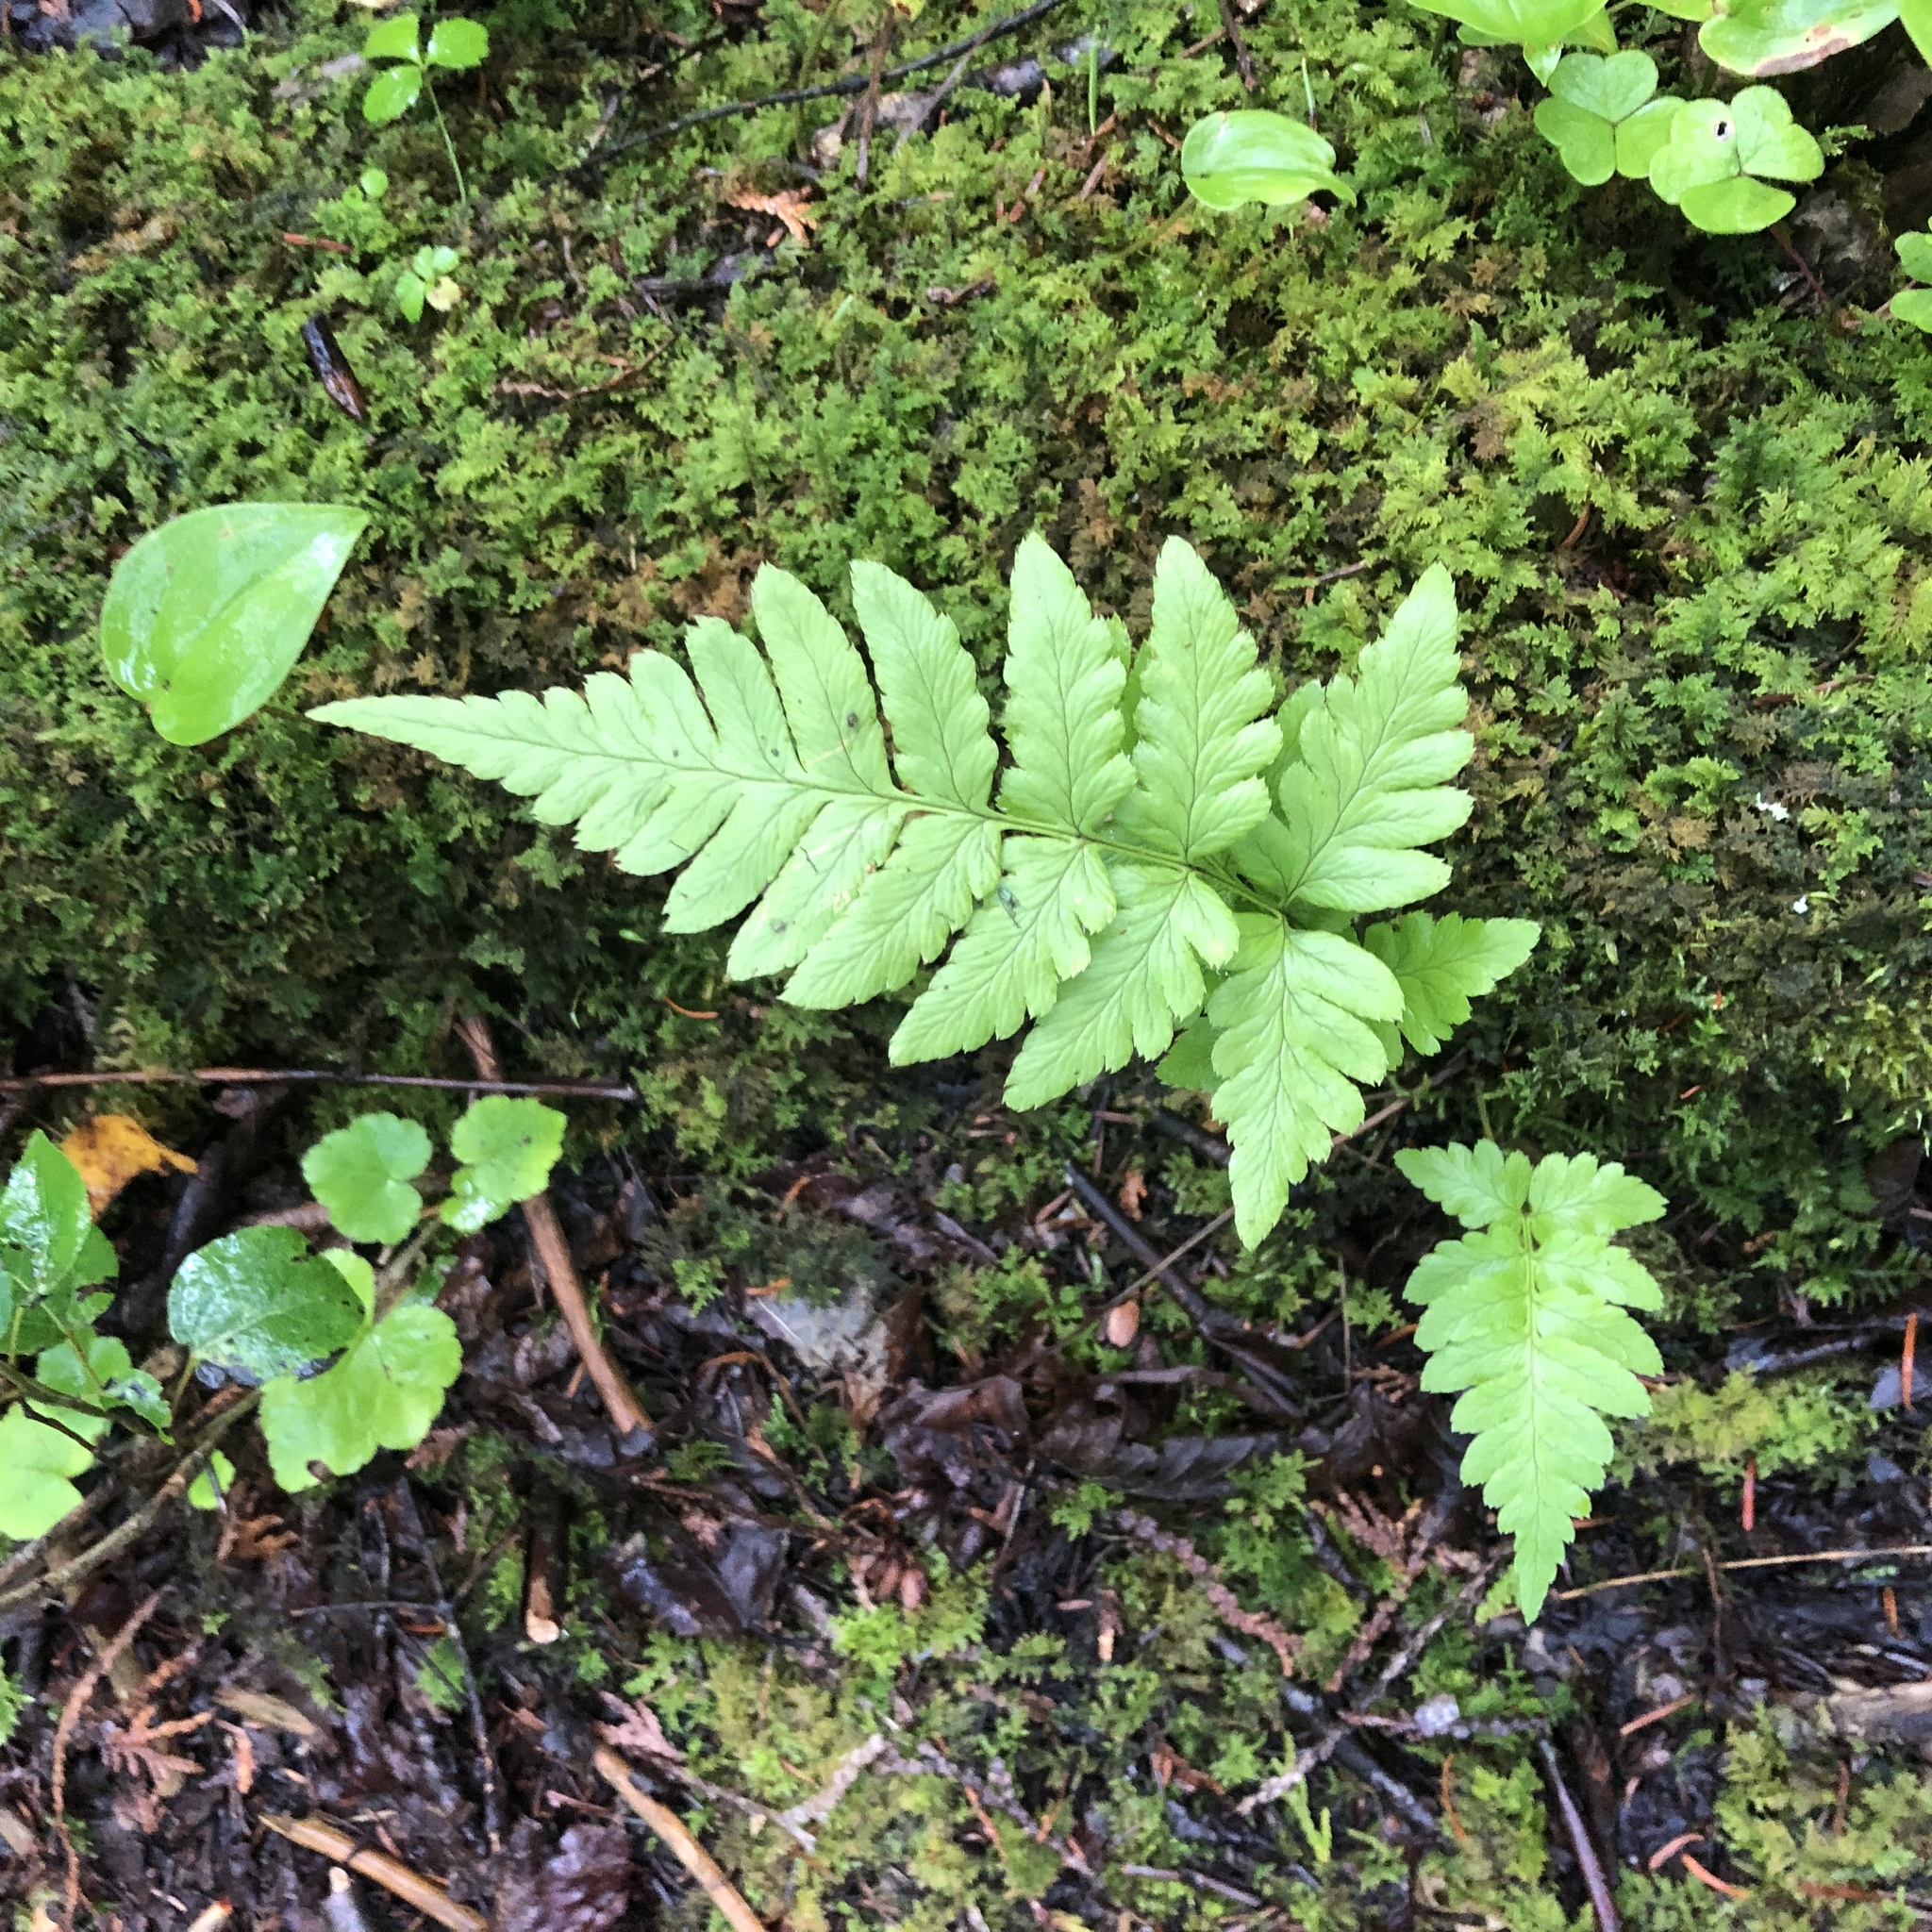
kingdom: Plantae
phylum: Tracheophyta
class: Polypodiopsida
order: Polypodiales
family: Dryopteridaceae
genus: Dryopteris
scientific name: Dryopteris cristata
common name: Crested wood fern
